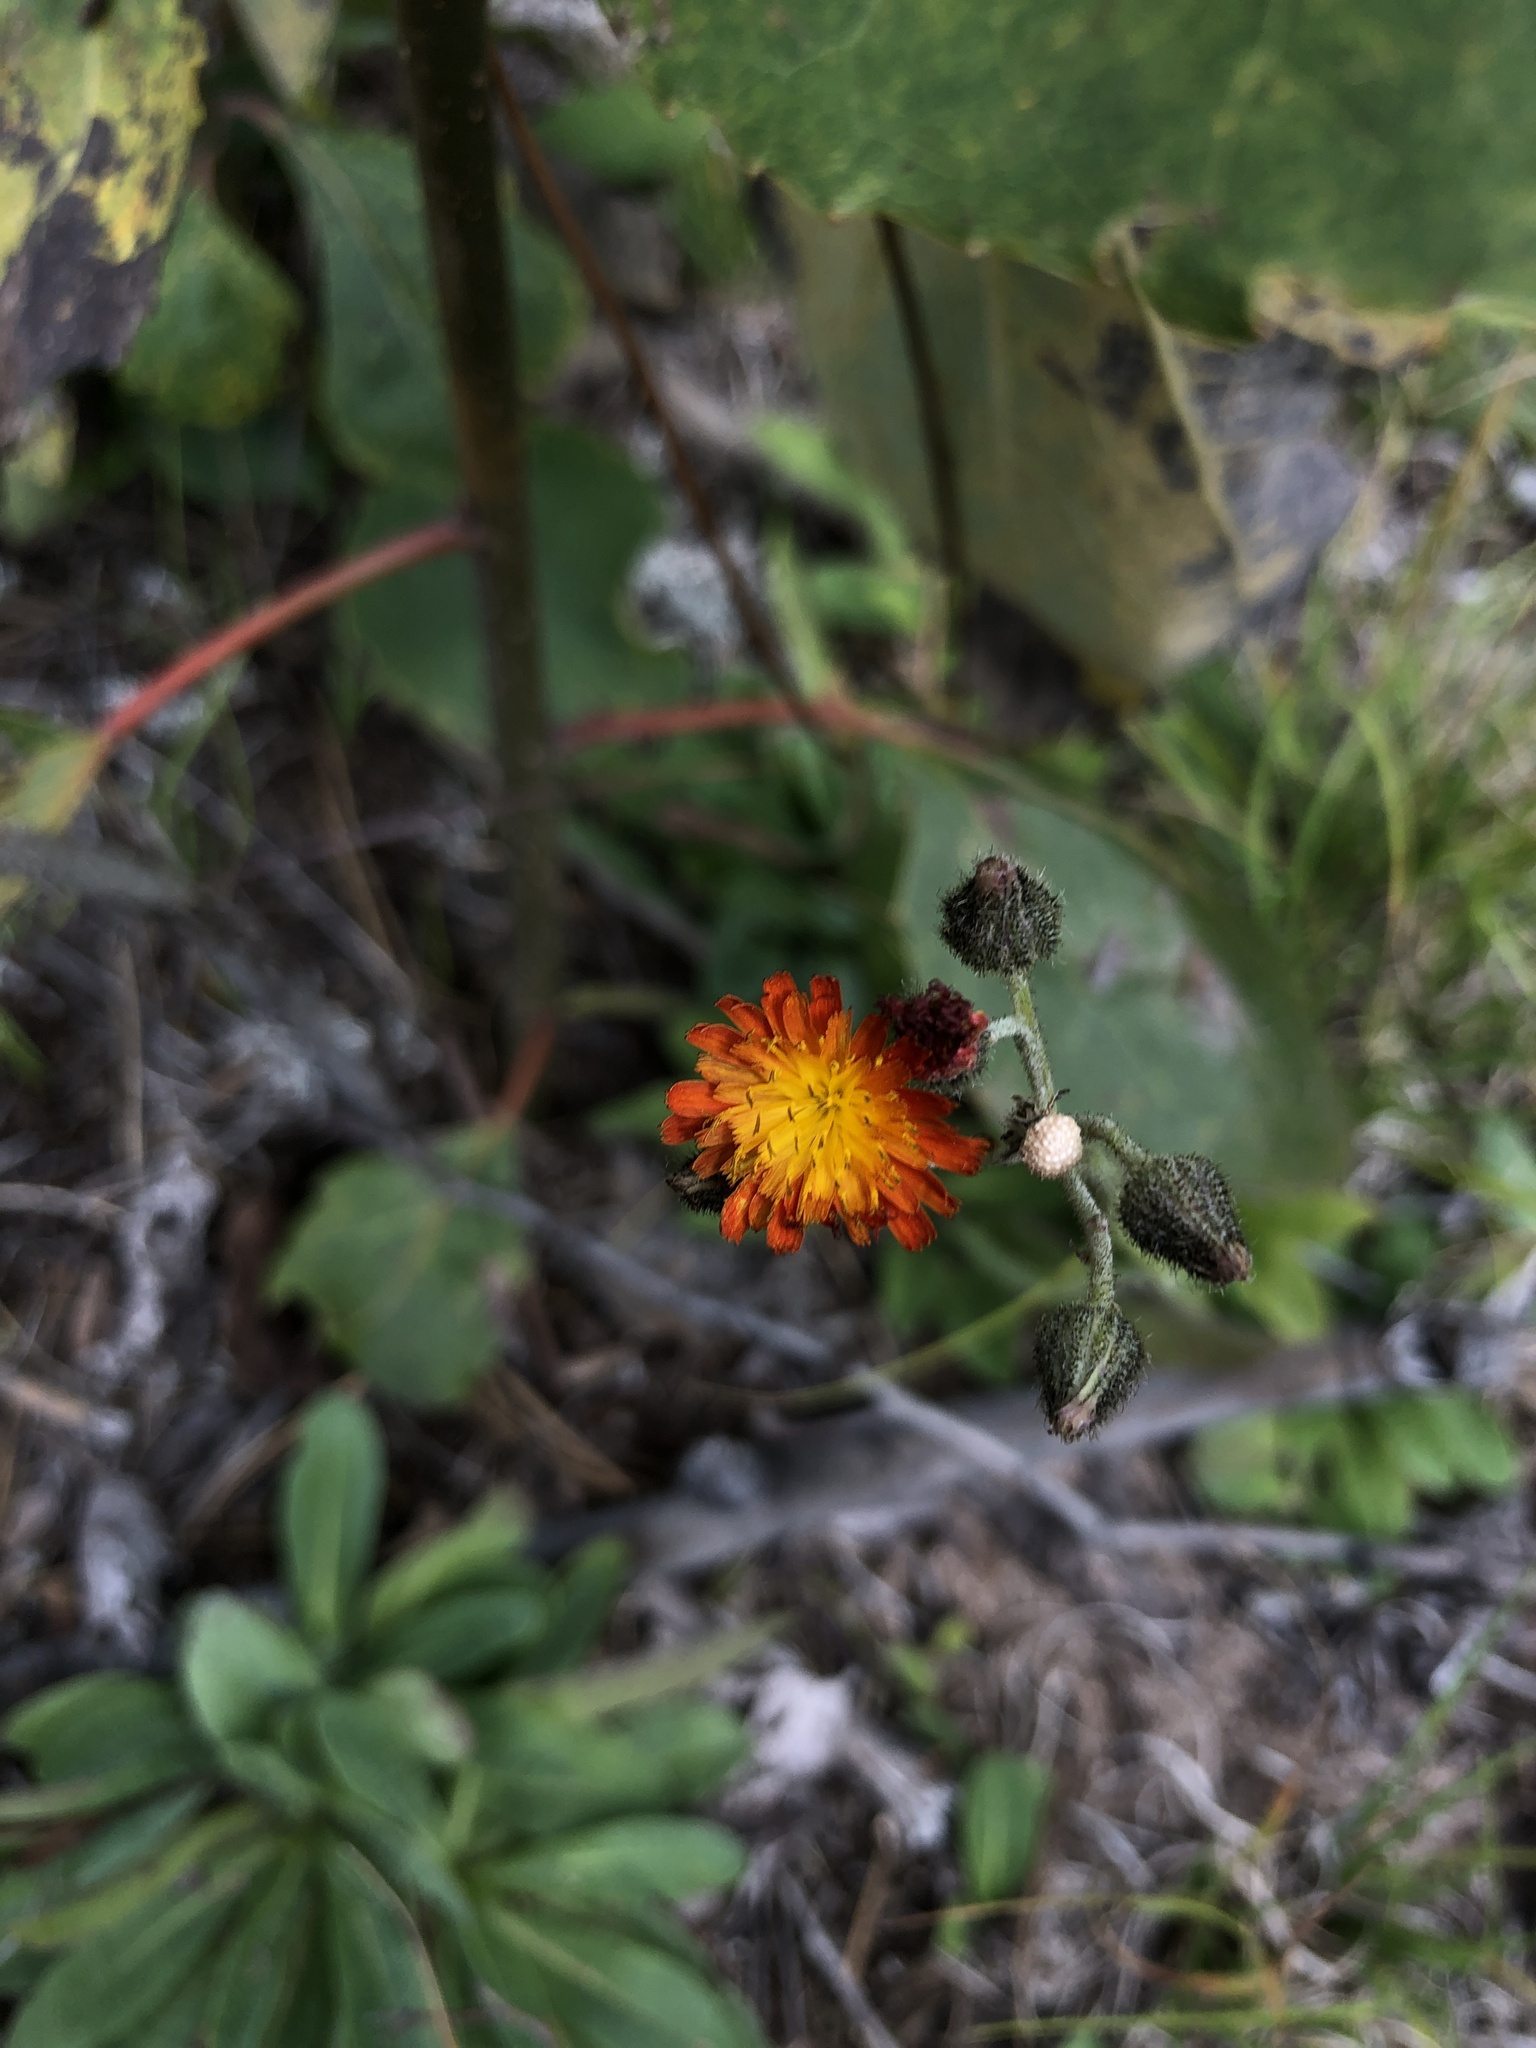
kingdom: Plantae
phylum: Tracheophyta
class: Magnoliopsida
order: Asterales
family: Asteraceae
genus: Pilosella
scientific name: Pilosella aurantiaca
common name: Fox-and-cubs
